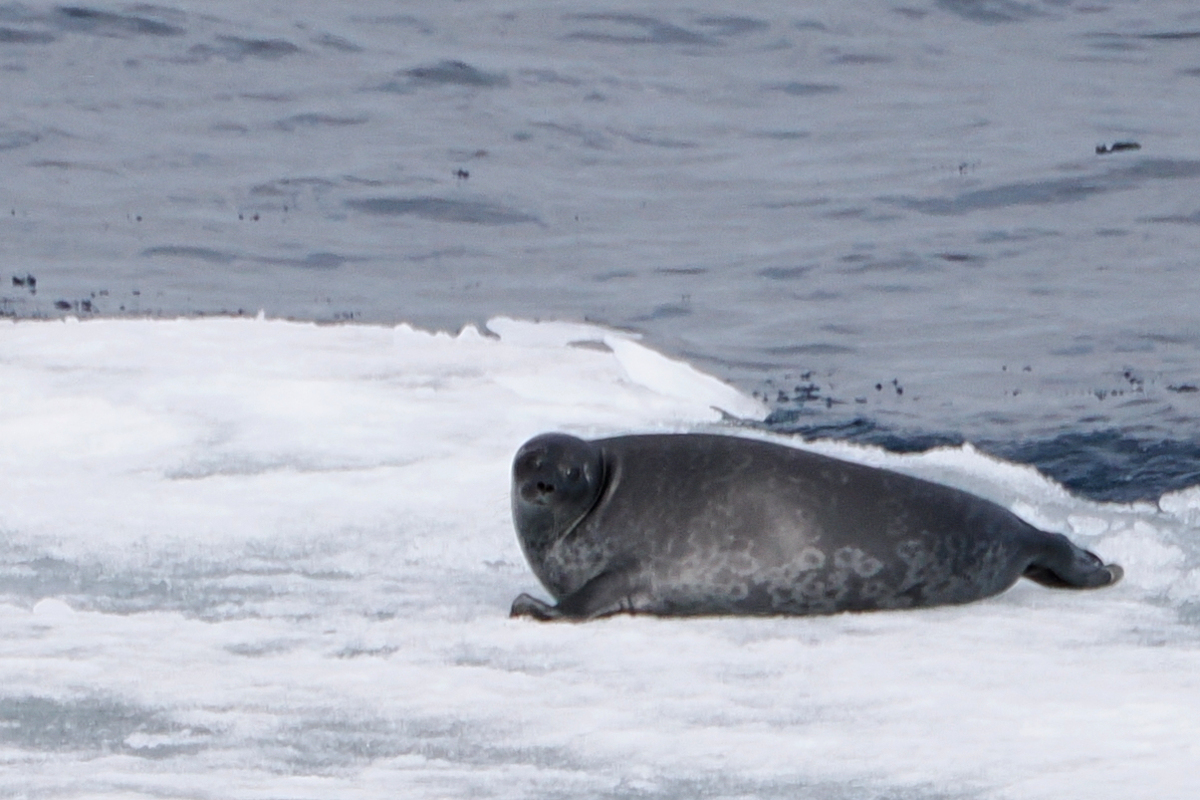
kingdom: Animalia
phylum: Chordata
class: Mammalia
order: Carnivora
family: Phocidae
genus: Pusa
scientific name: Pusa hispida
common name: Ringed seal
